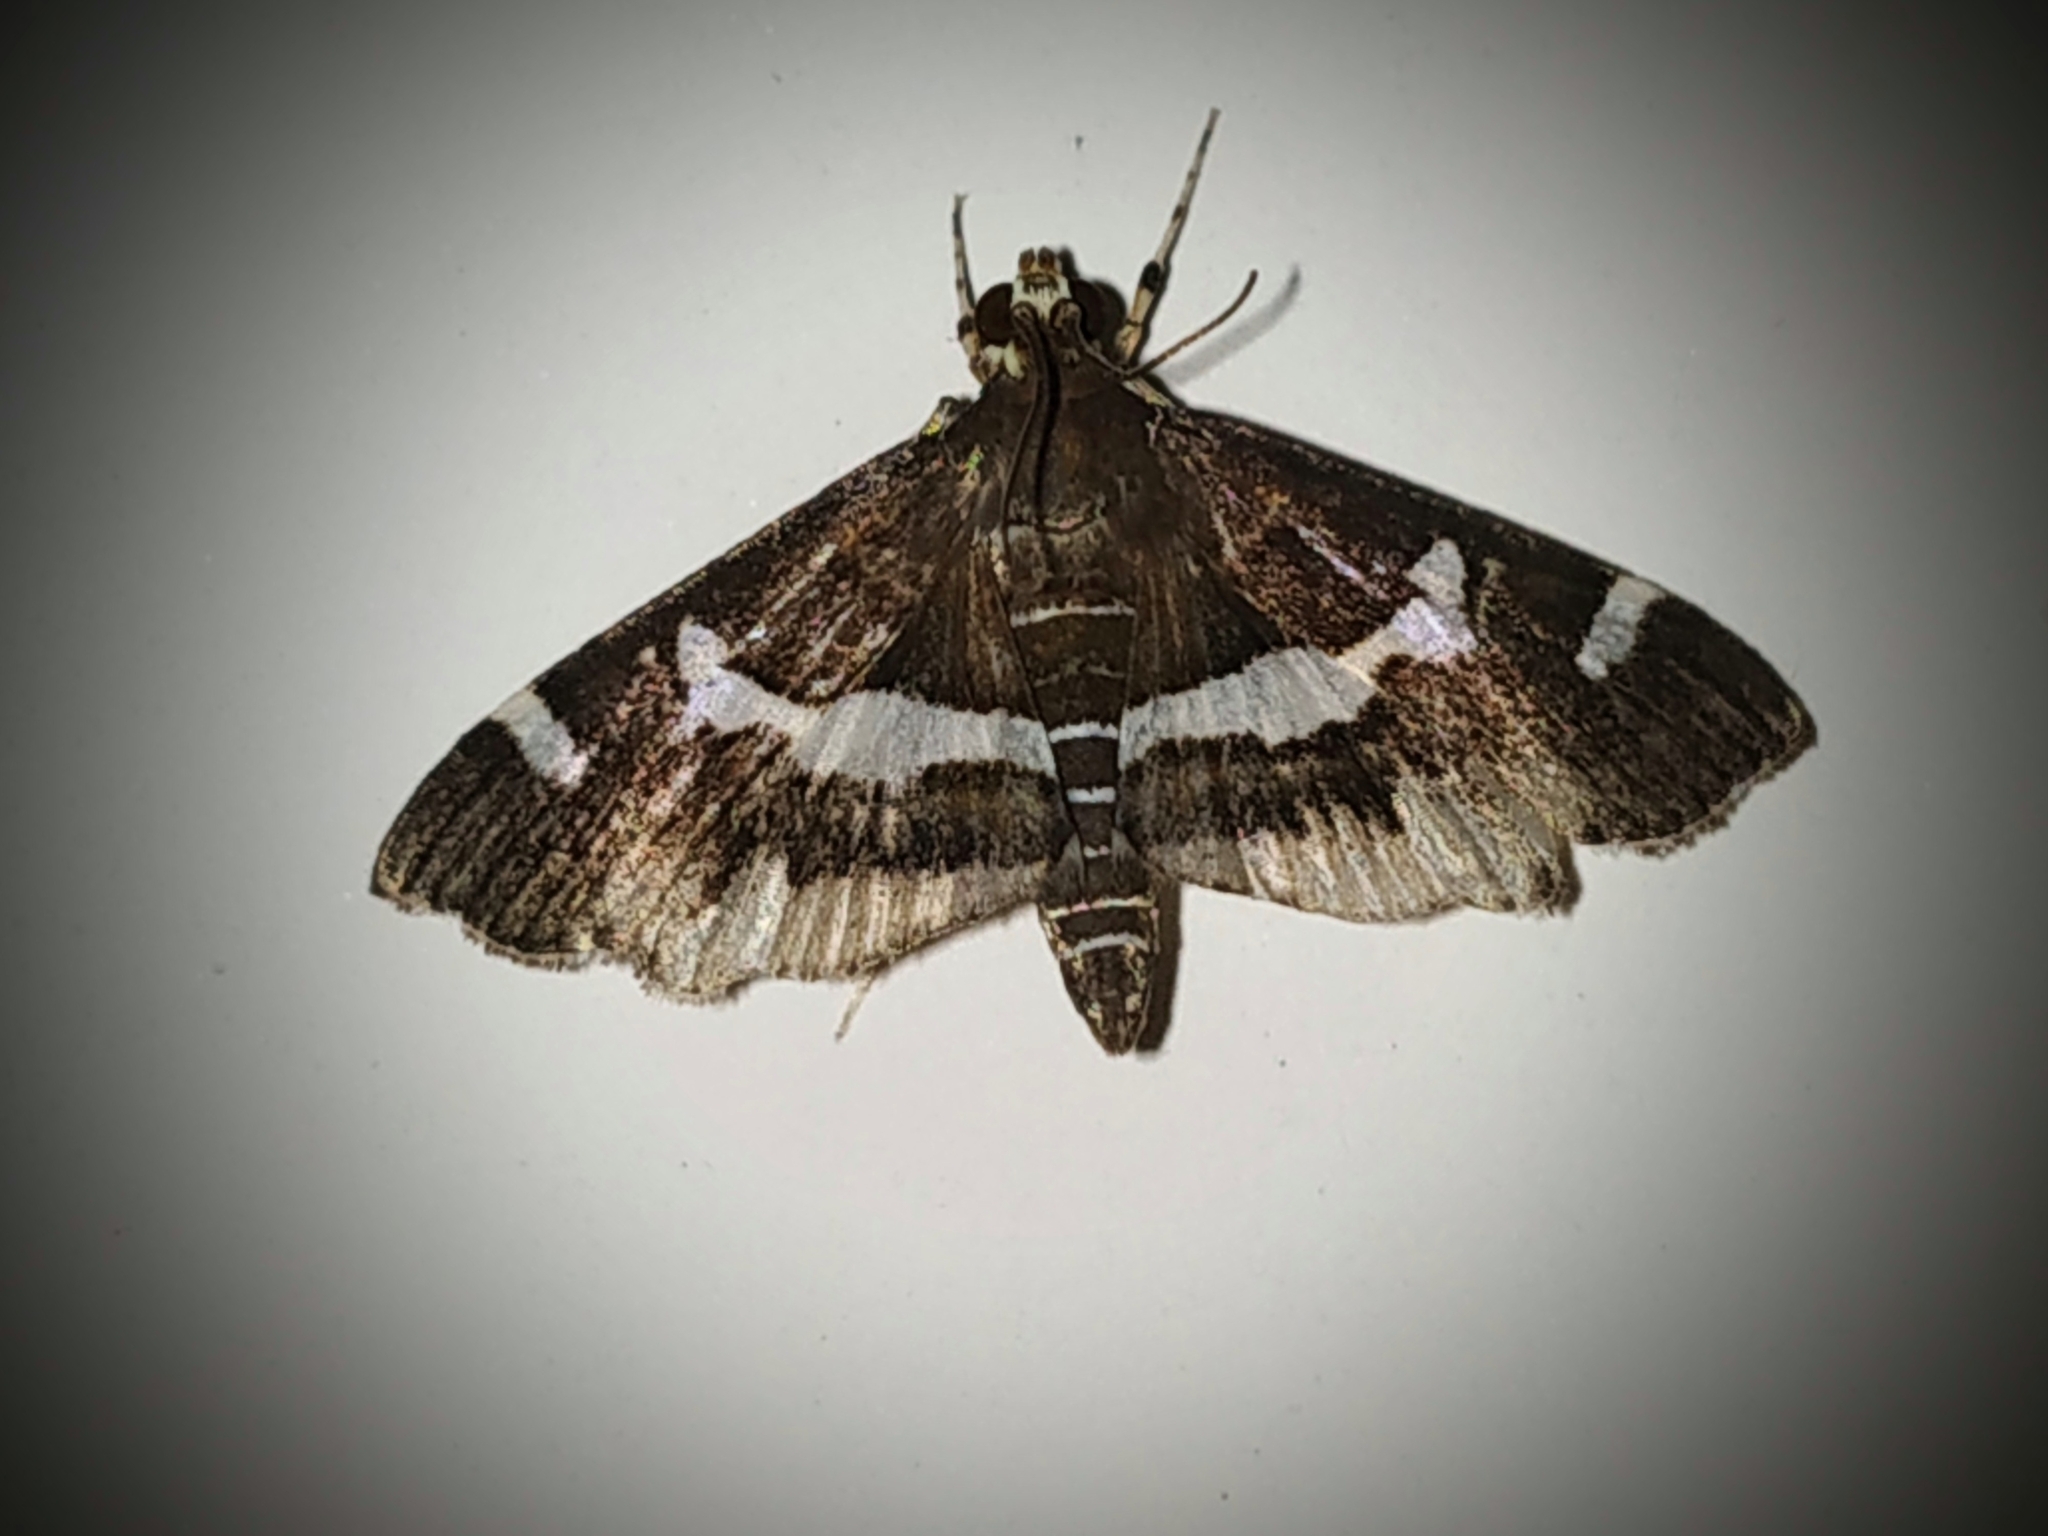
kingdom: Animalia
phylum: Arthropoda
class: Insecta
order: Lepidoptera
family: Crambidae
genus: Spoladea
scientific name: Spoladea recurvalis
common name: Beet webworm moth
